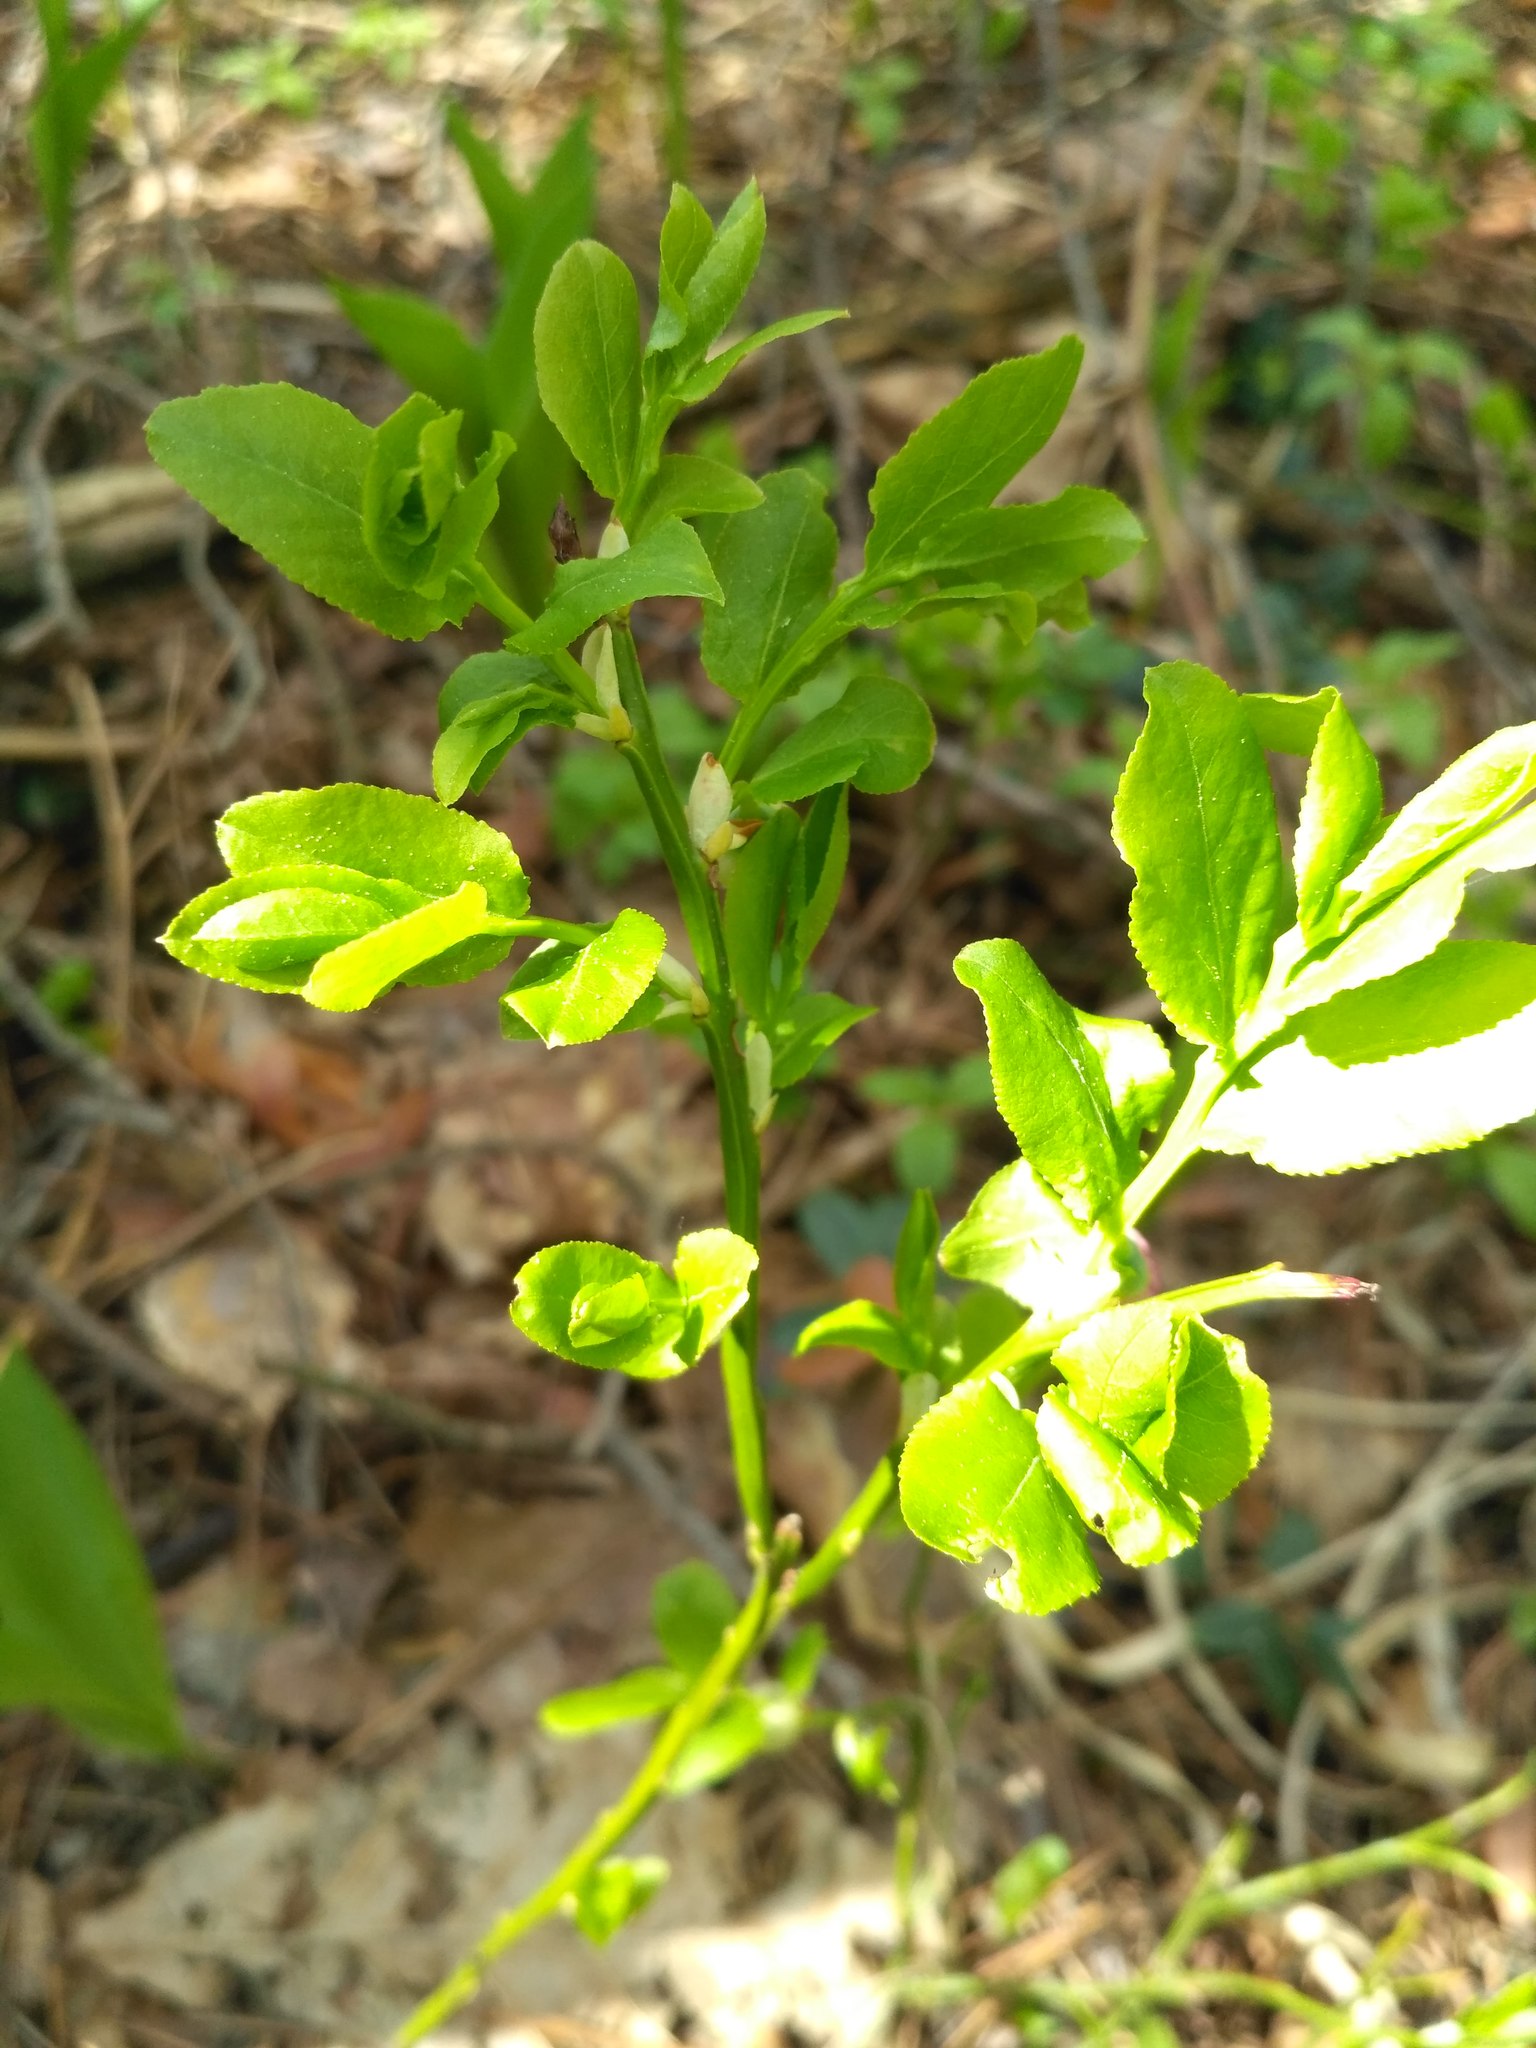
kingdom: Plantae
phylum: Tracheophyta
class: Magnoliopsida
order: Ericales
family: Ericaceae
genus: Vaccinium
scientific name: Vaccinium myrtillus
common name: Bilberry
